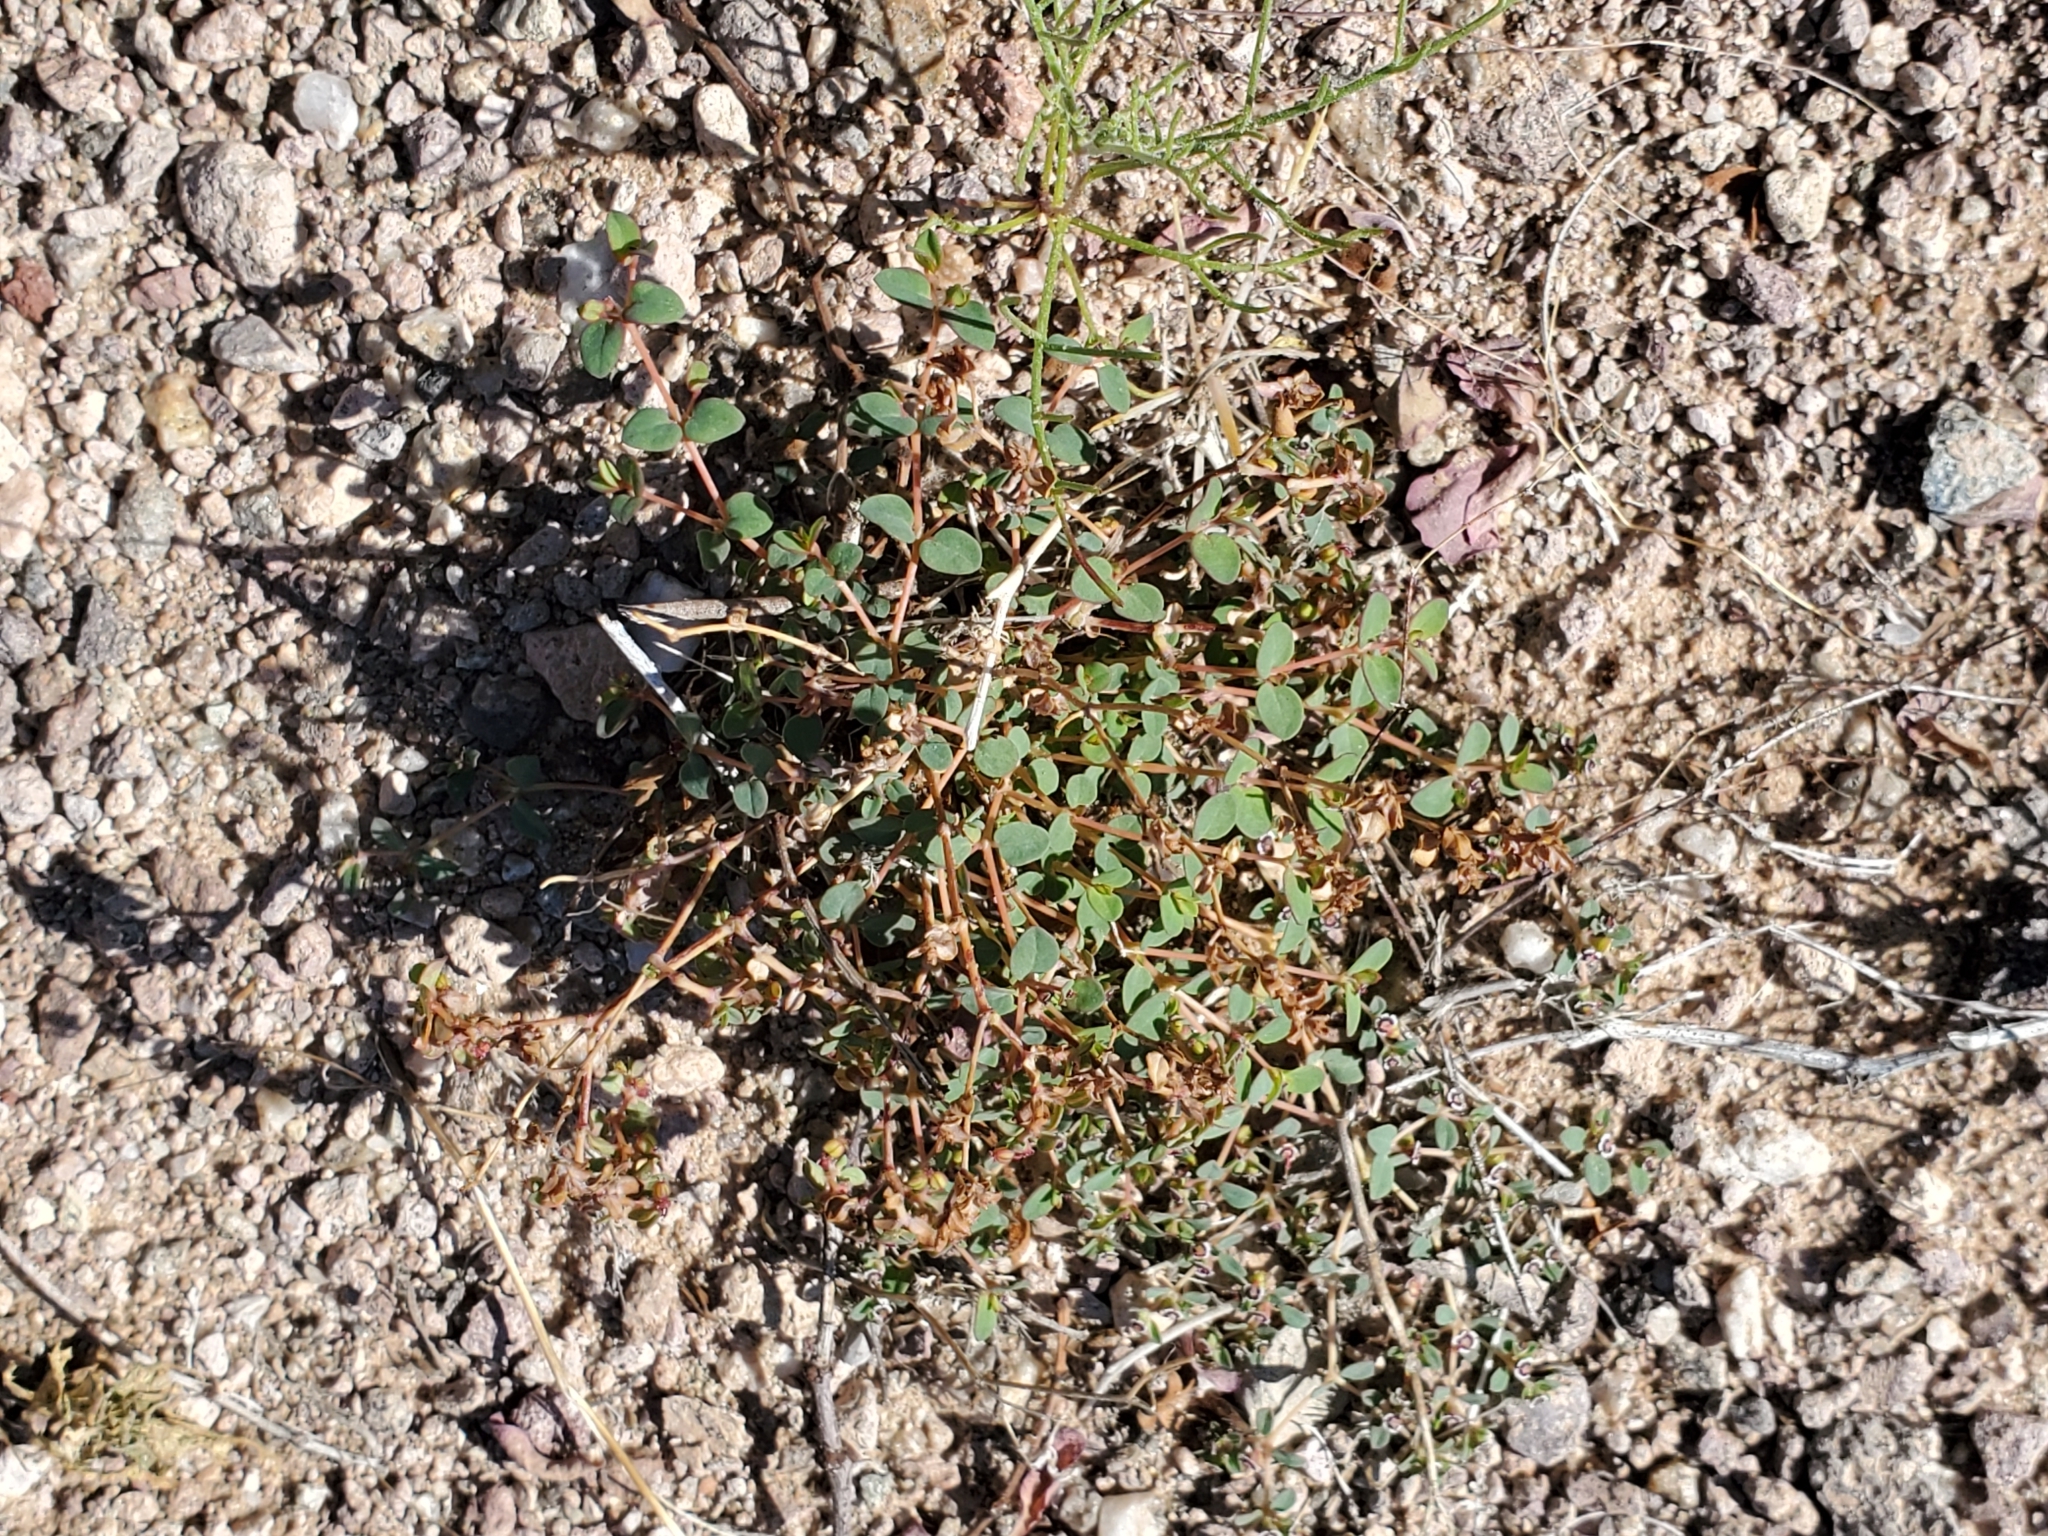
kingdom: Plantae
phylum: Tracheophyta
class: Magnoliopsida
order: Malpighiales
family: Euphorbiaceae
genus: Euphorbia
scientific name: Euphorbia polycarpa
